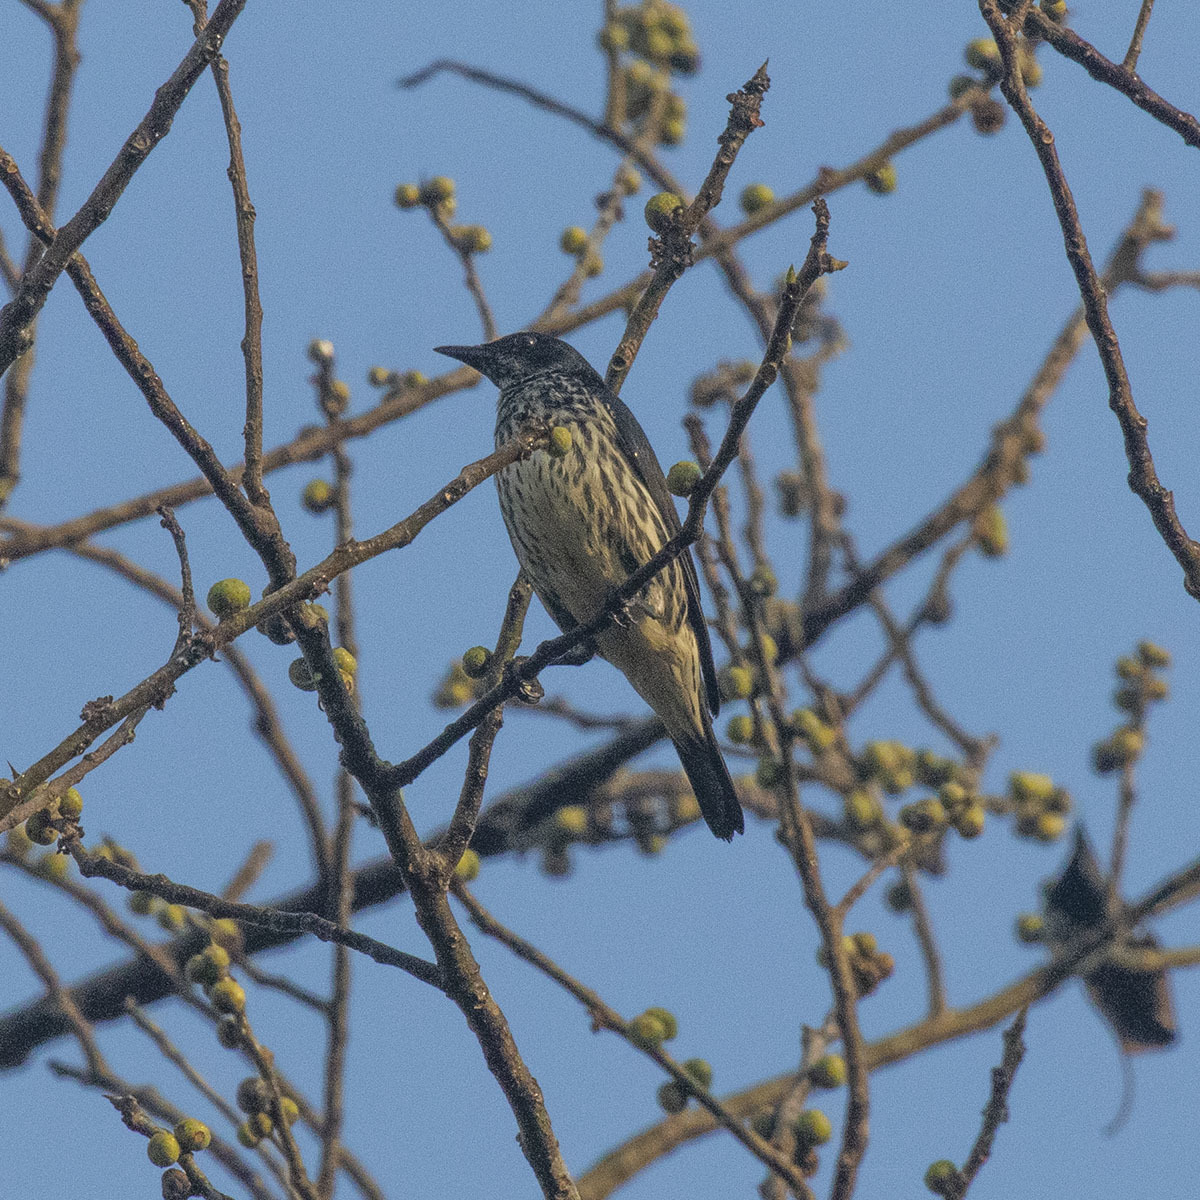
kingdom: Animalia
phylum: Chordata
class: Aves
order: Passeriformes
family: Sturnidae
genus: Aplonis
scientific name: Aplonis panayensis
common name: Asian glossy starling
